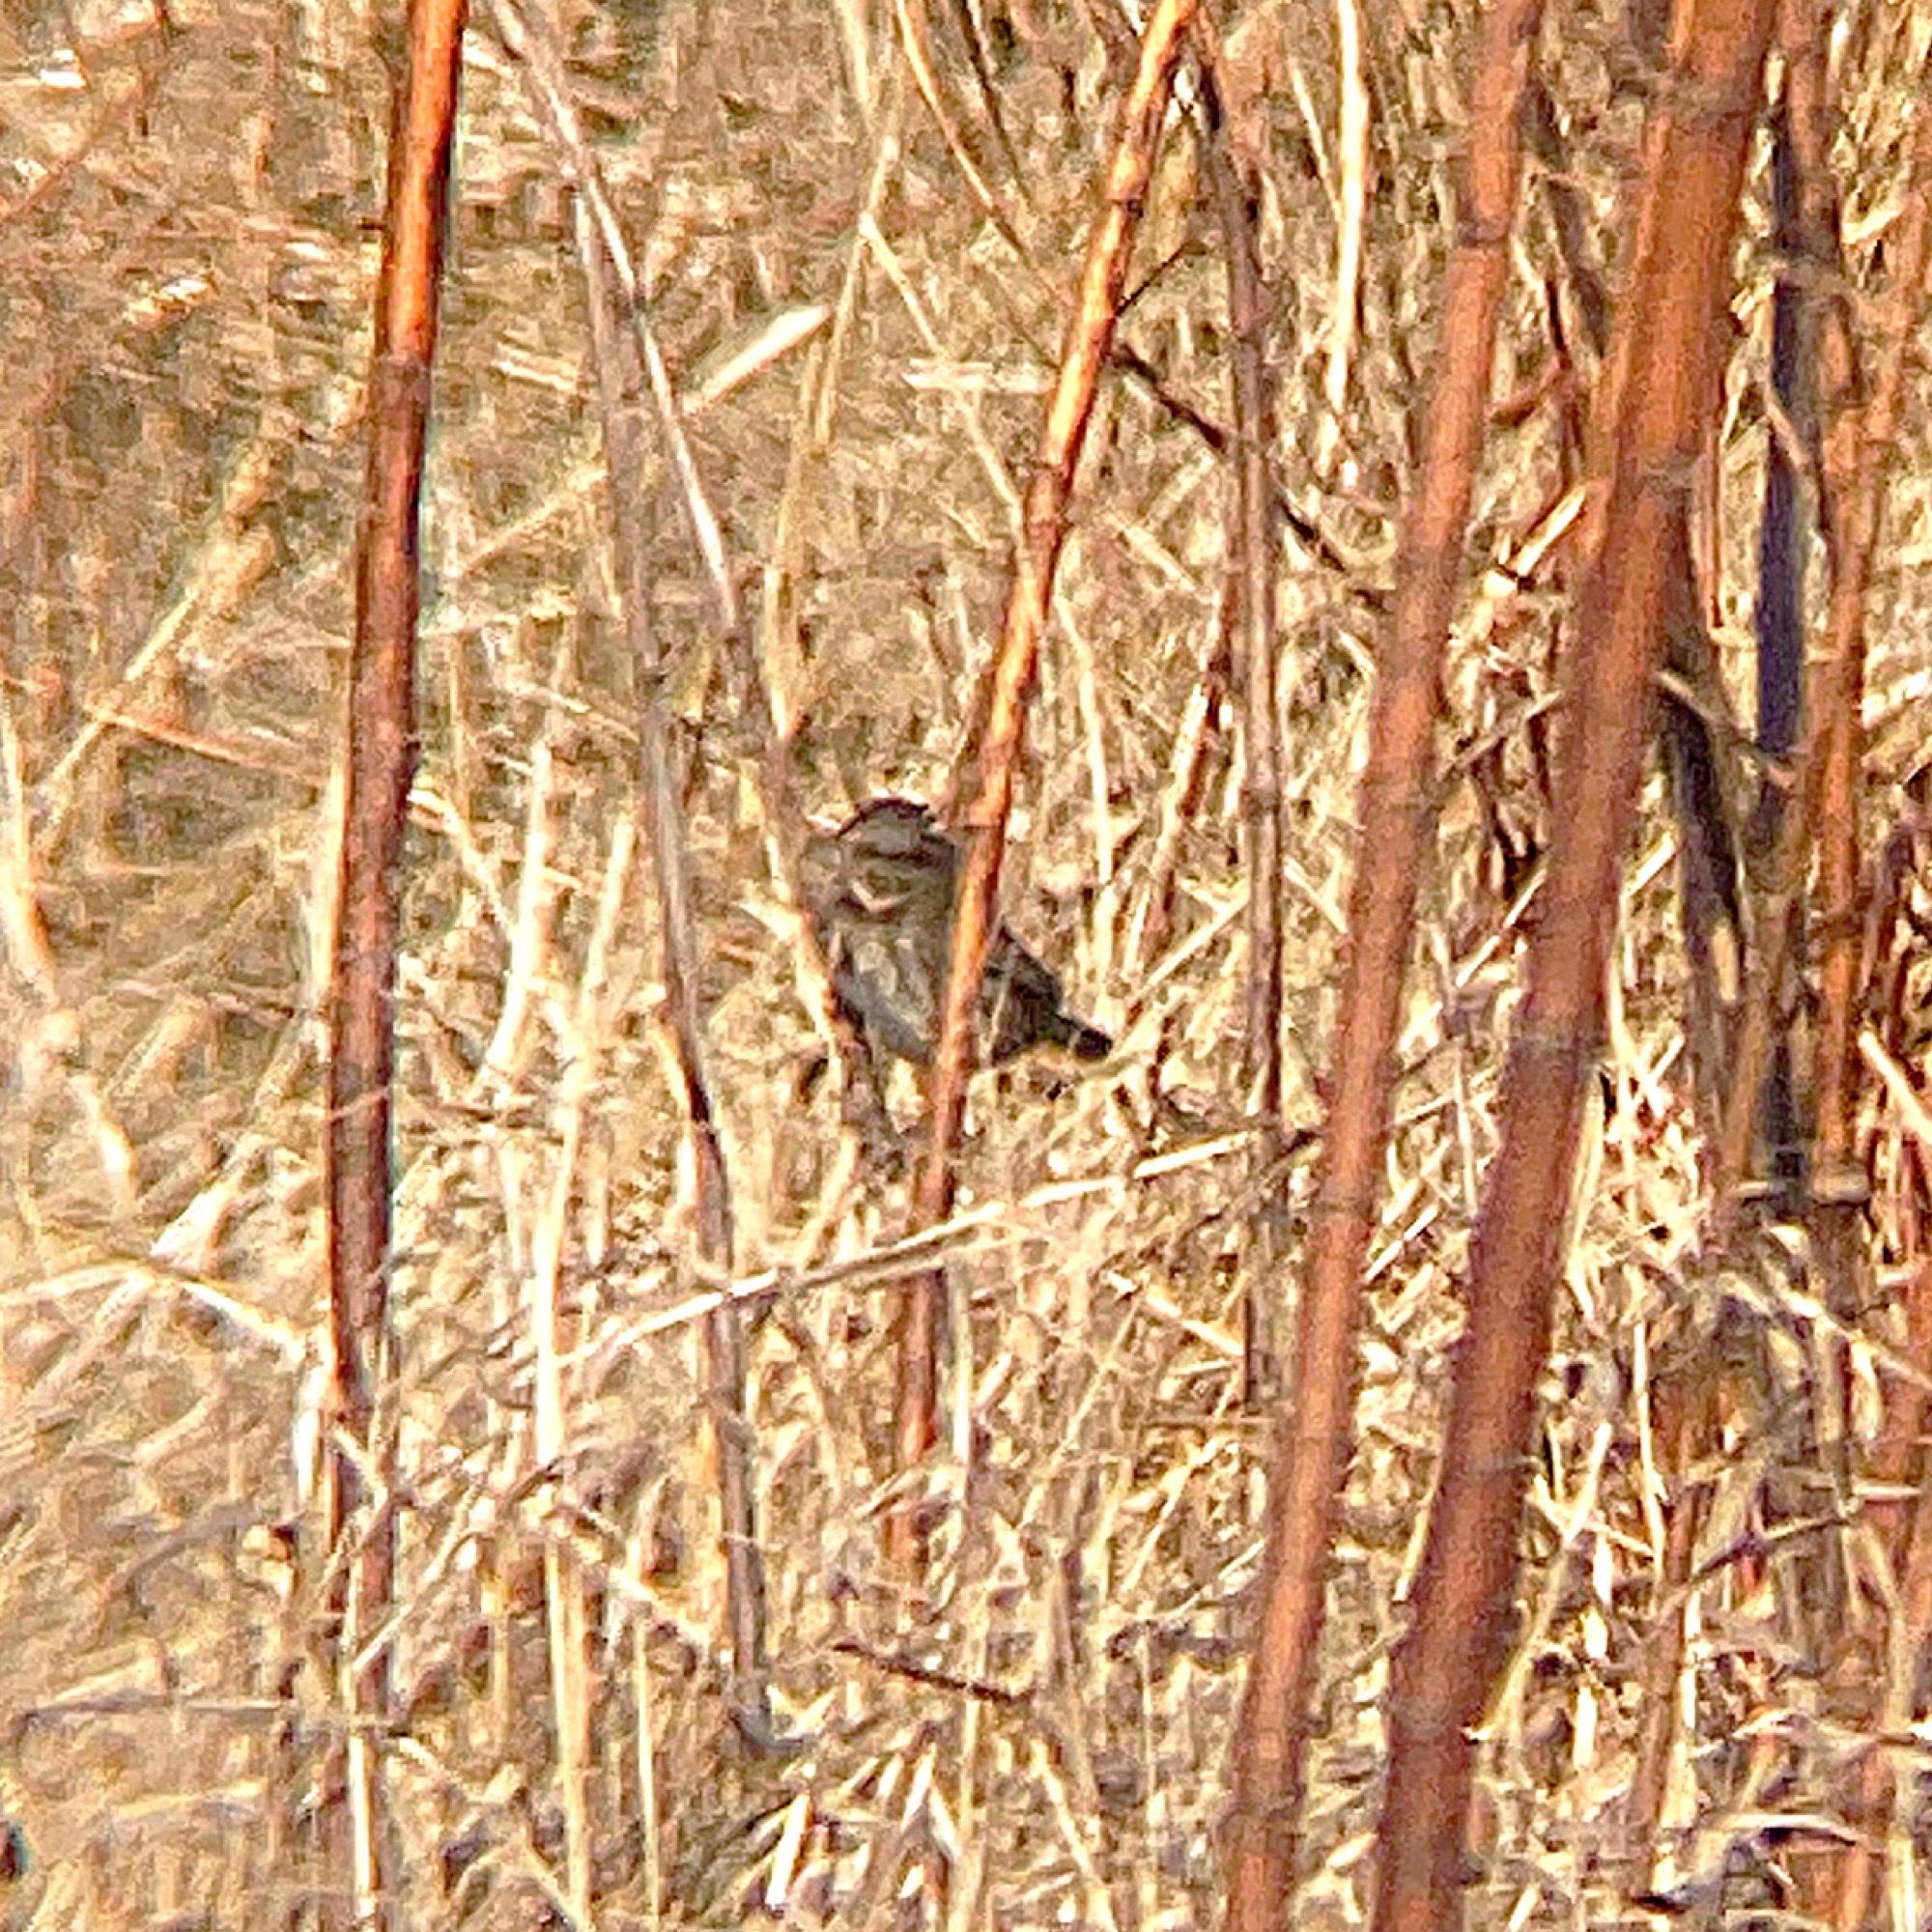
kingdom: Animalia
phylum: Chordata
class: Aves
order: Passeriformes
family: Passerellidae
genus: Melospiza
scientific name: Melospiza georgiana
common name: Swamp sparrow
